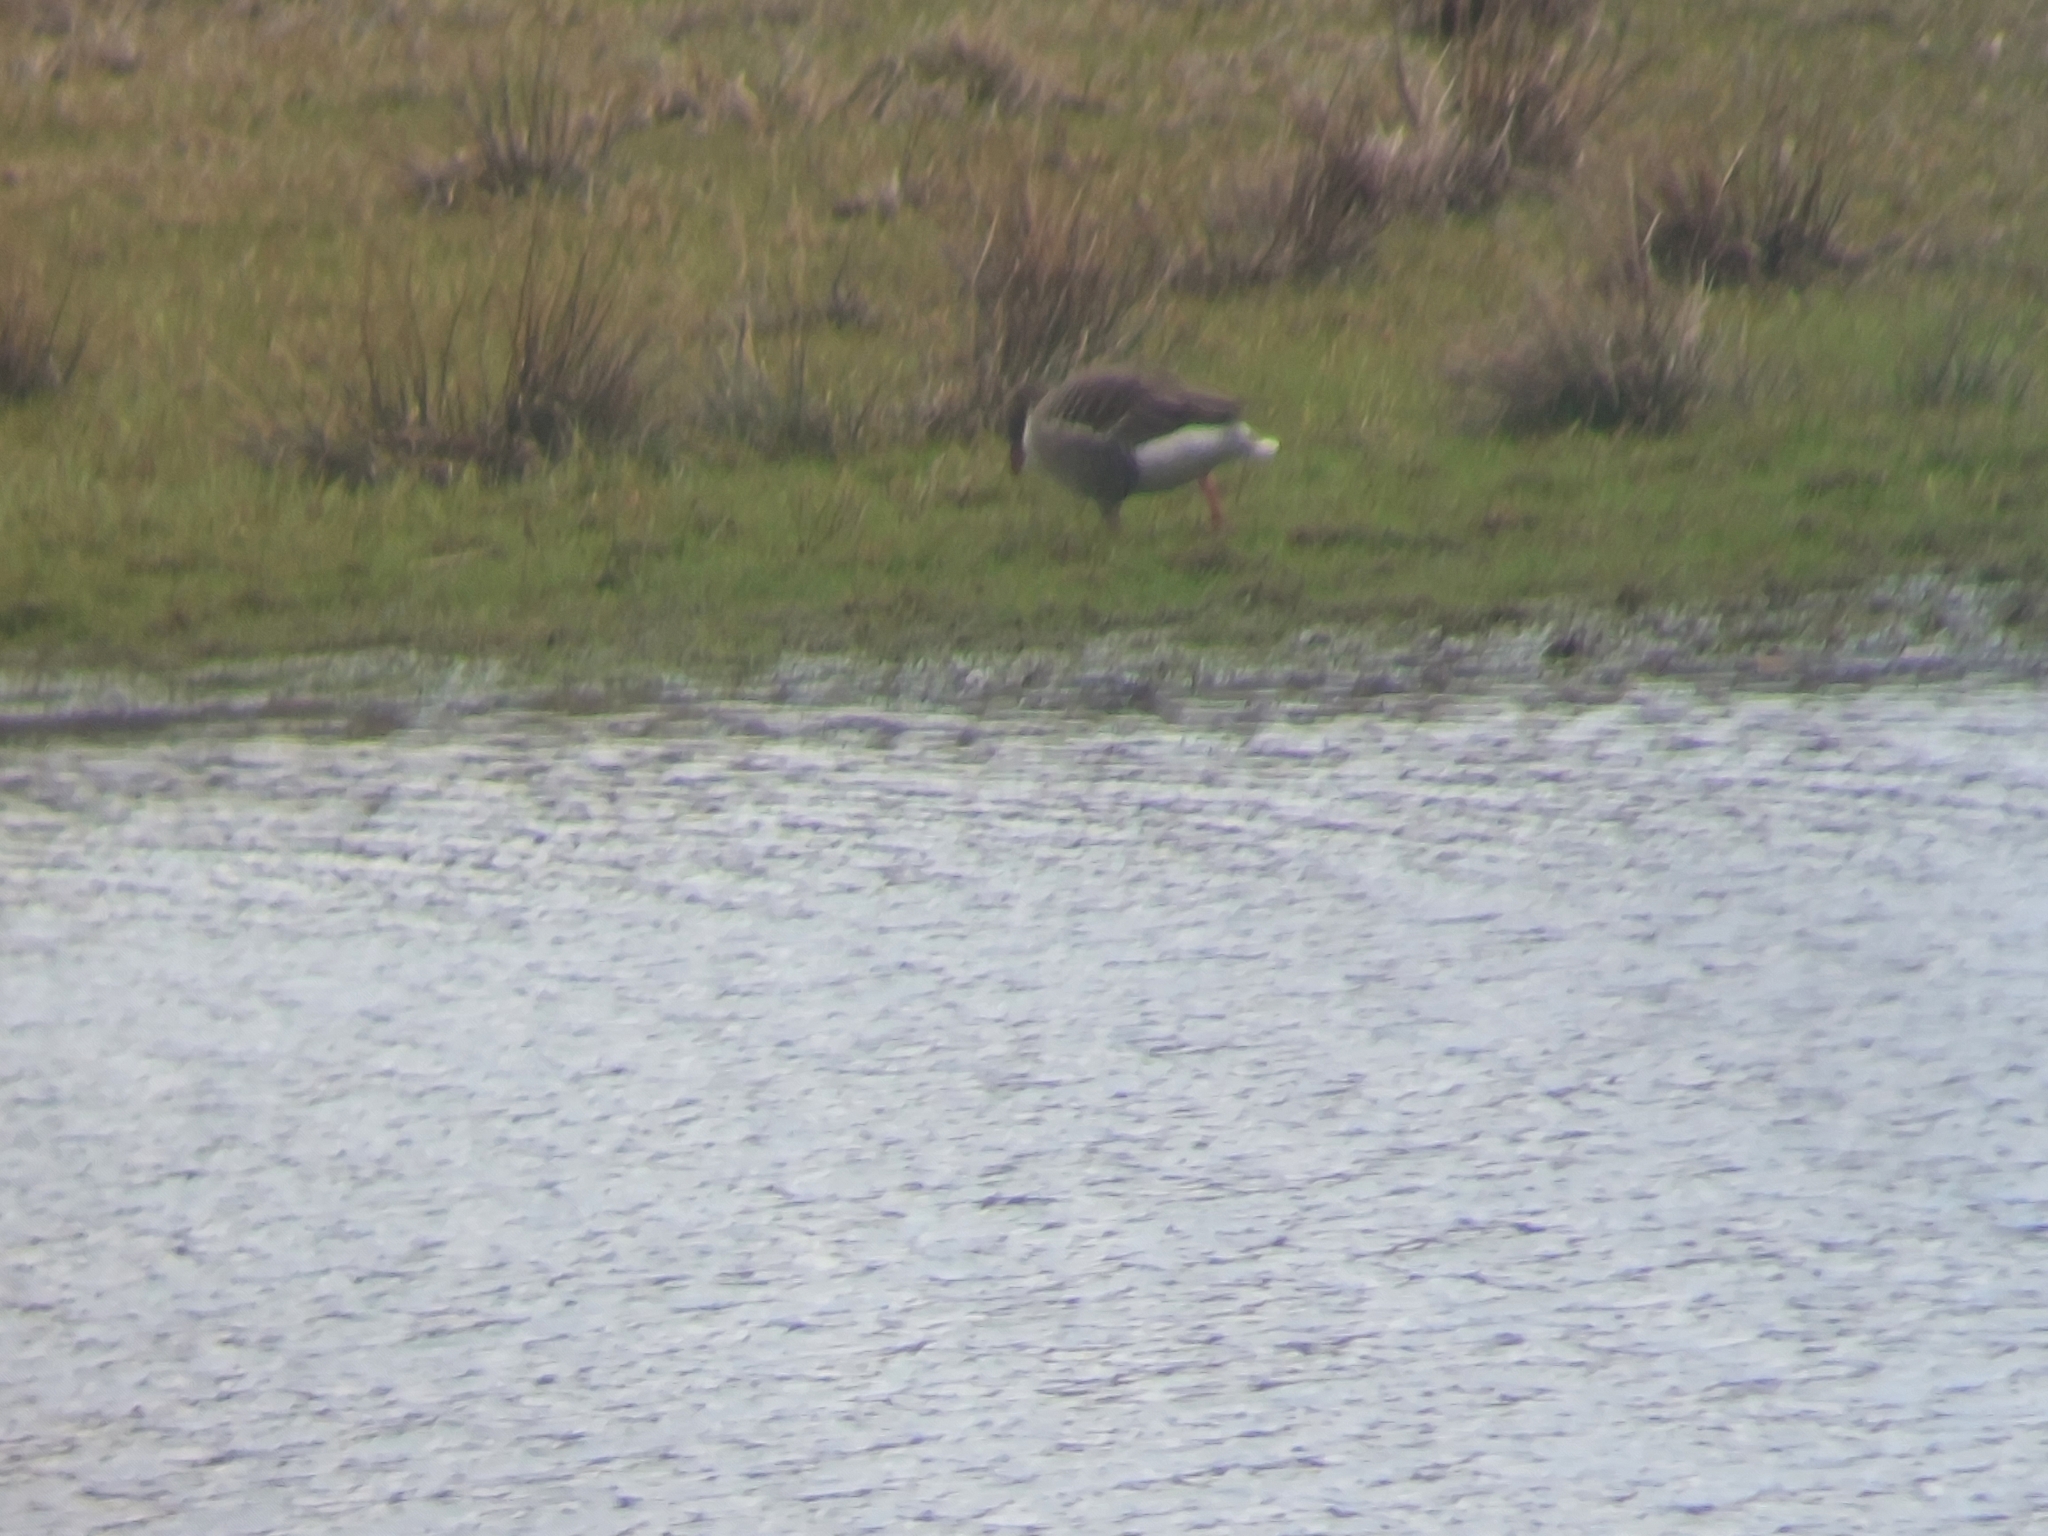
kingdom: Animalia
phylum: Chordata
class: Aves
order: Anseriformes
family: Anatidae
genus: Anser
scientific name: Anser anser
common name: Greylag goose
